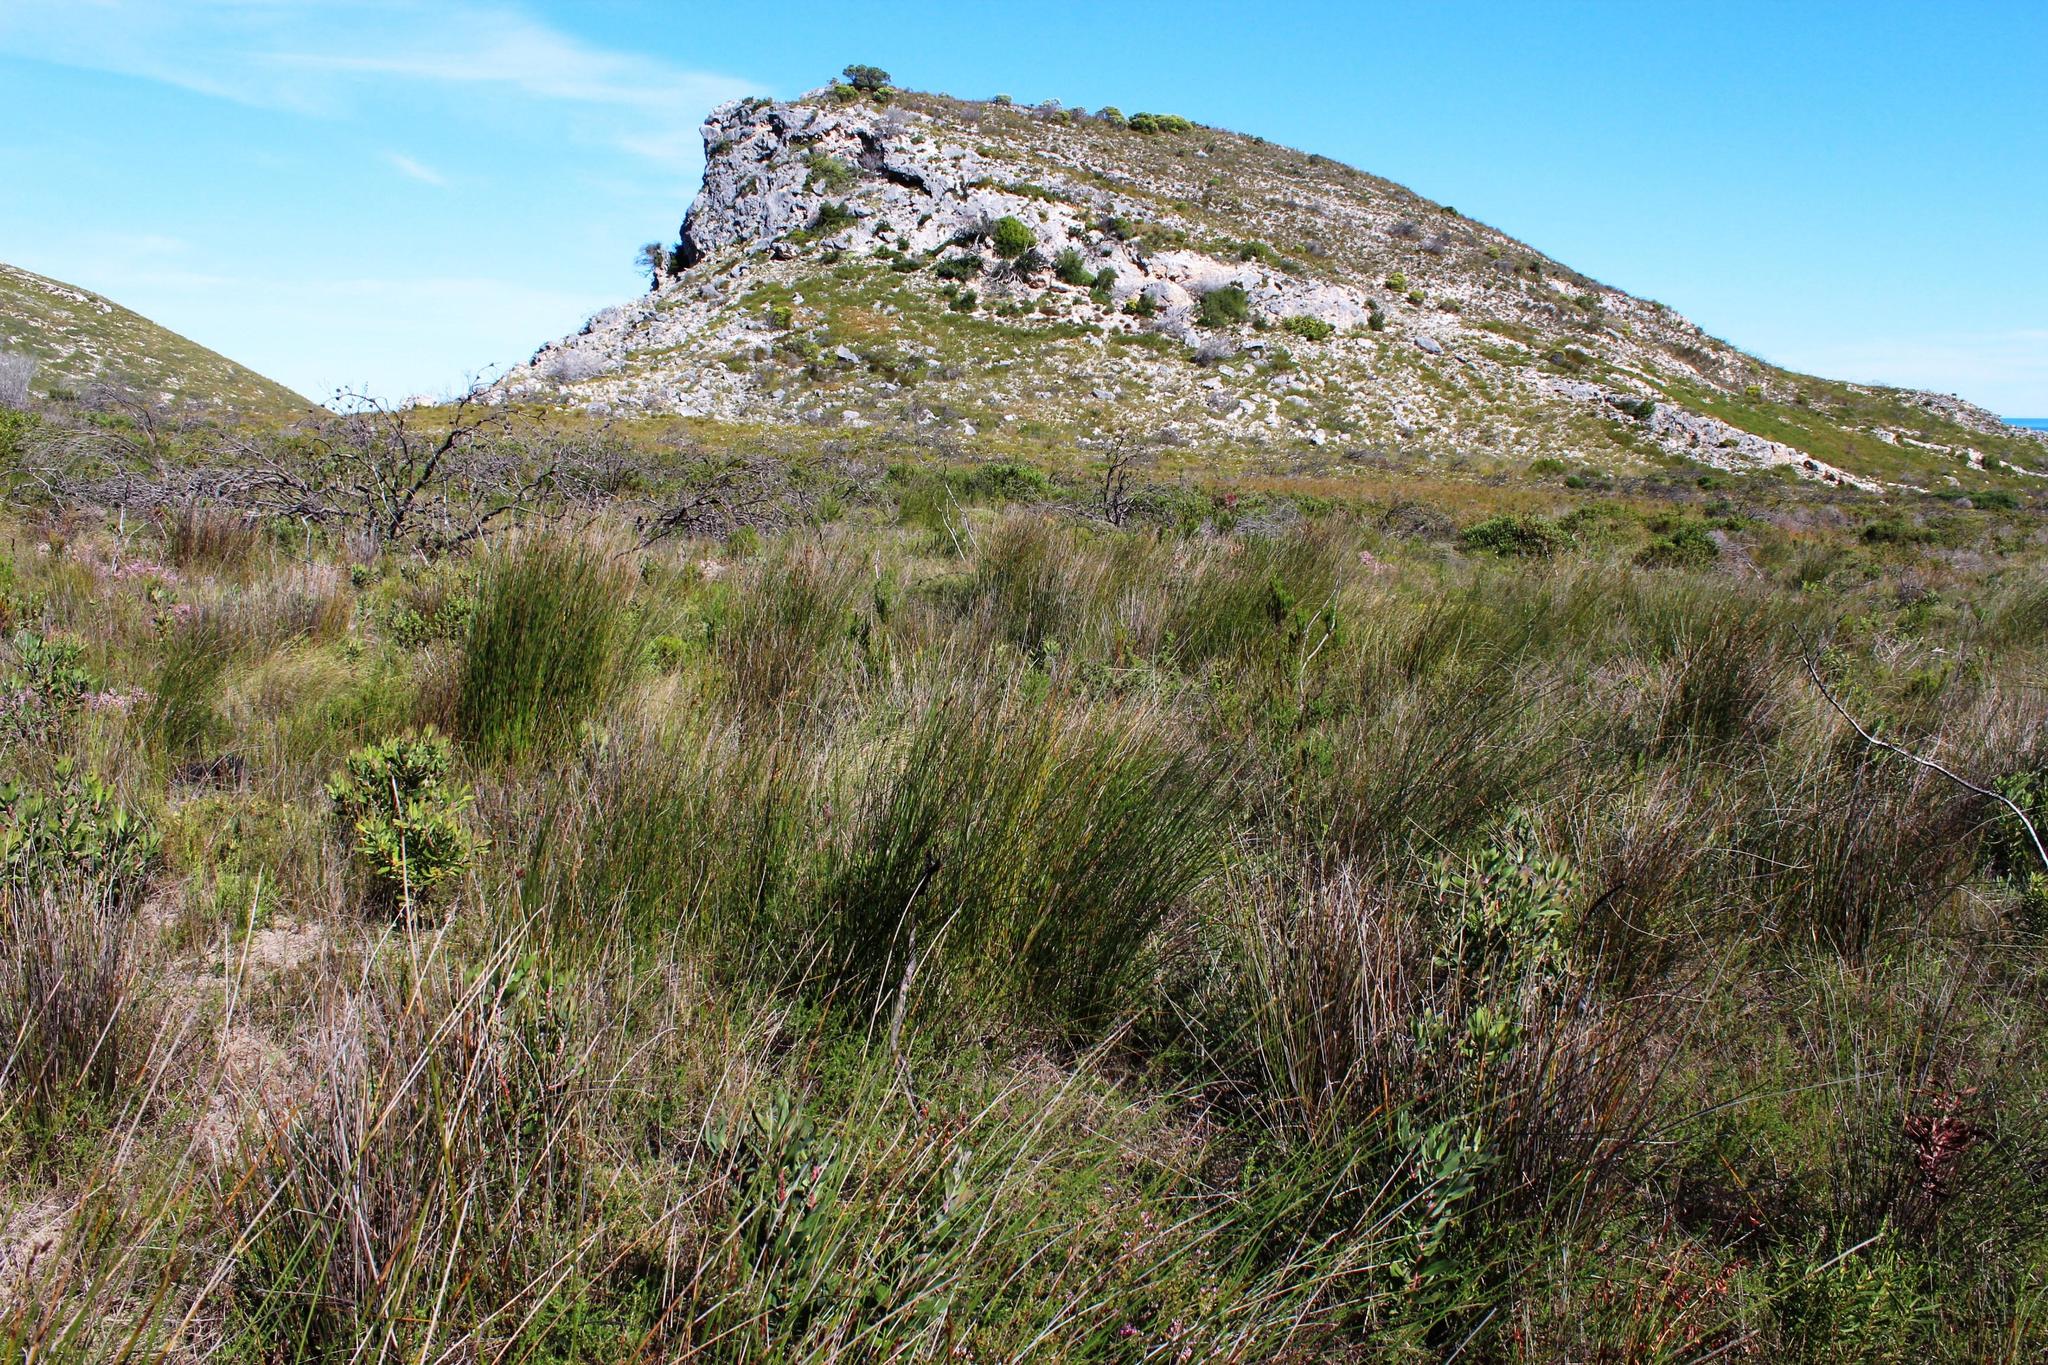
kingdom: Plantae
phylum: Tracheophyta
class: Liliopsida
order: Poales
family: Restionaceae
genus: Thamnochortus
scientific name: Thamnochortus erectus
